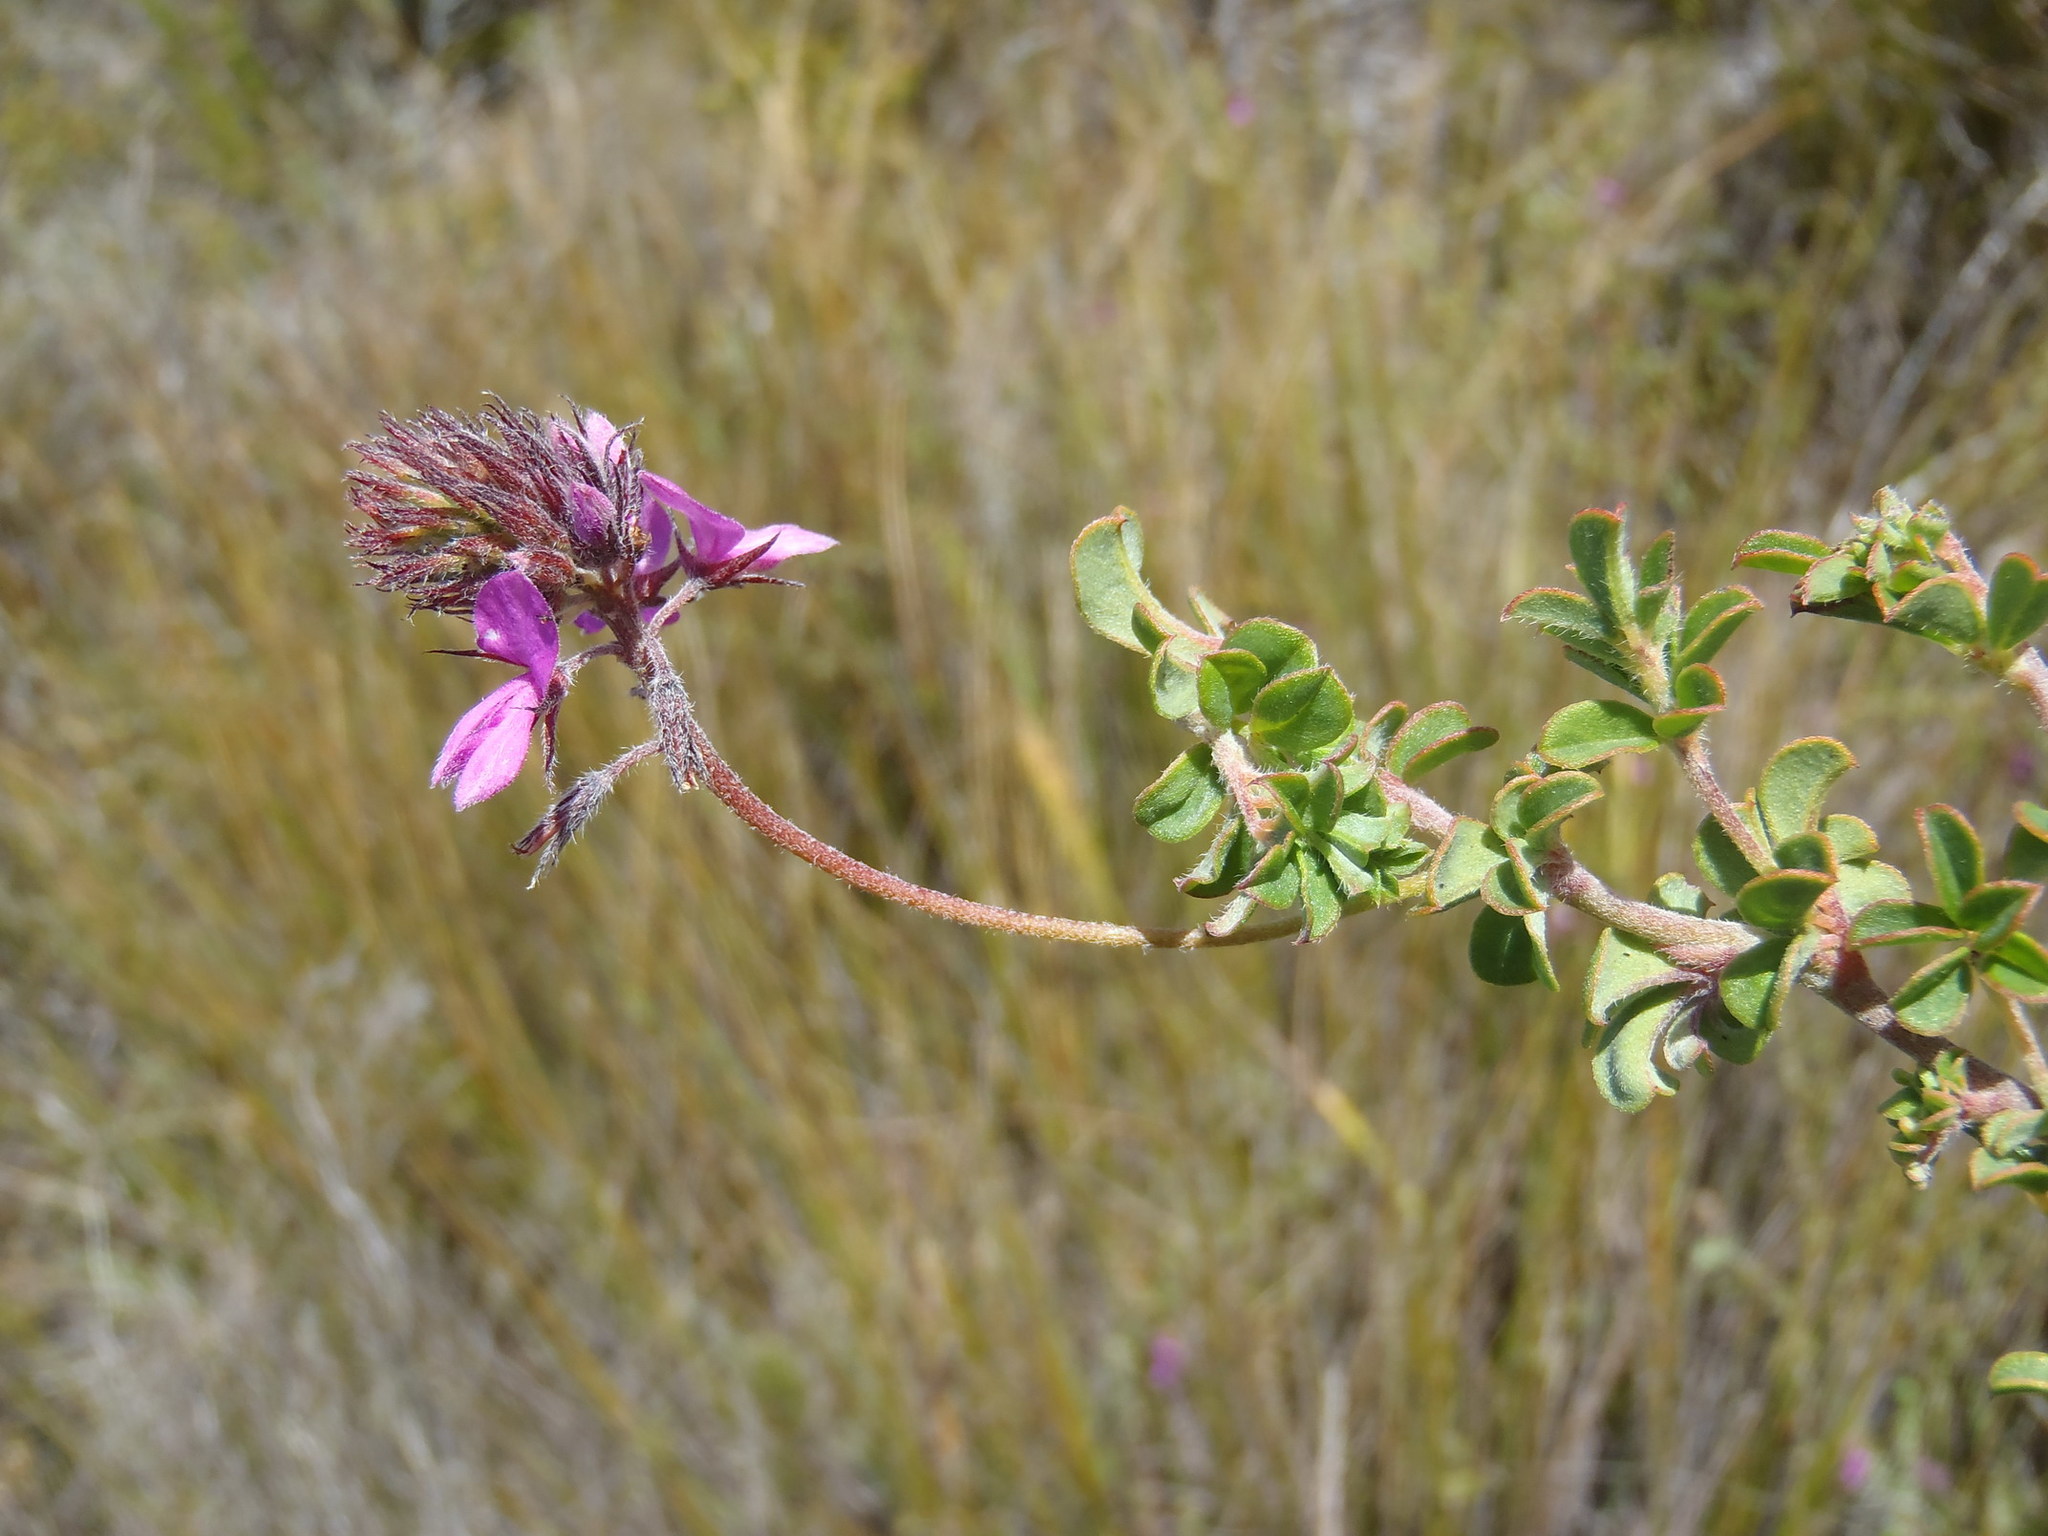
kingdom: Plantae
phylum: Tracheophyta
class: Magnoliopsida
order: Fabales
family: Fabaceae
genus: Indigofera
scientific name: Indigofera alopecuroides
